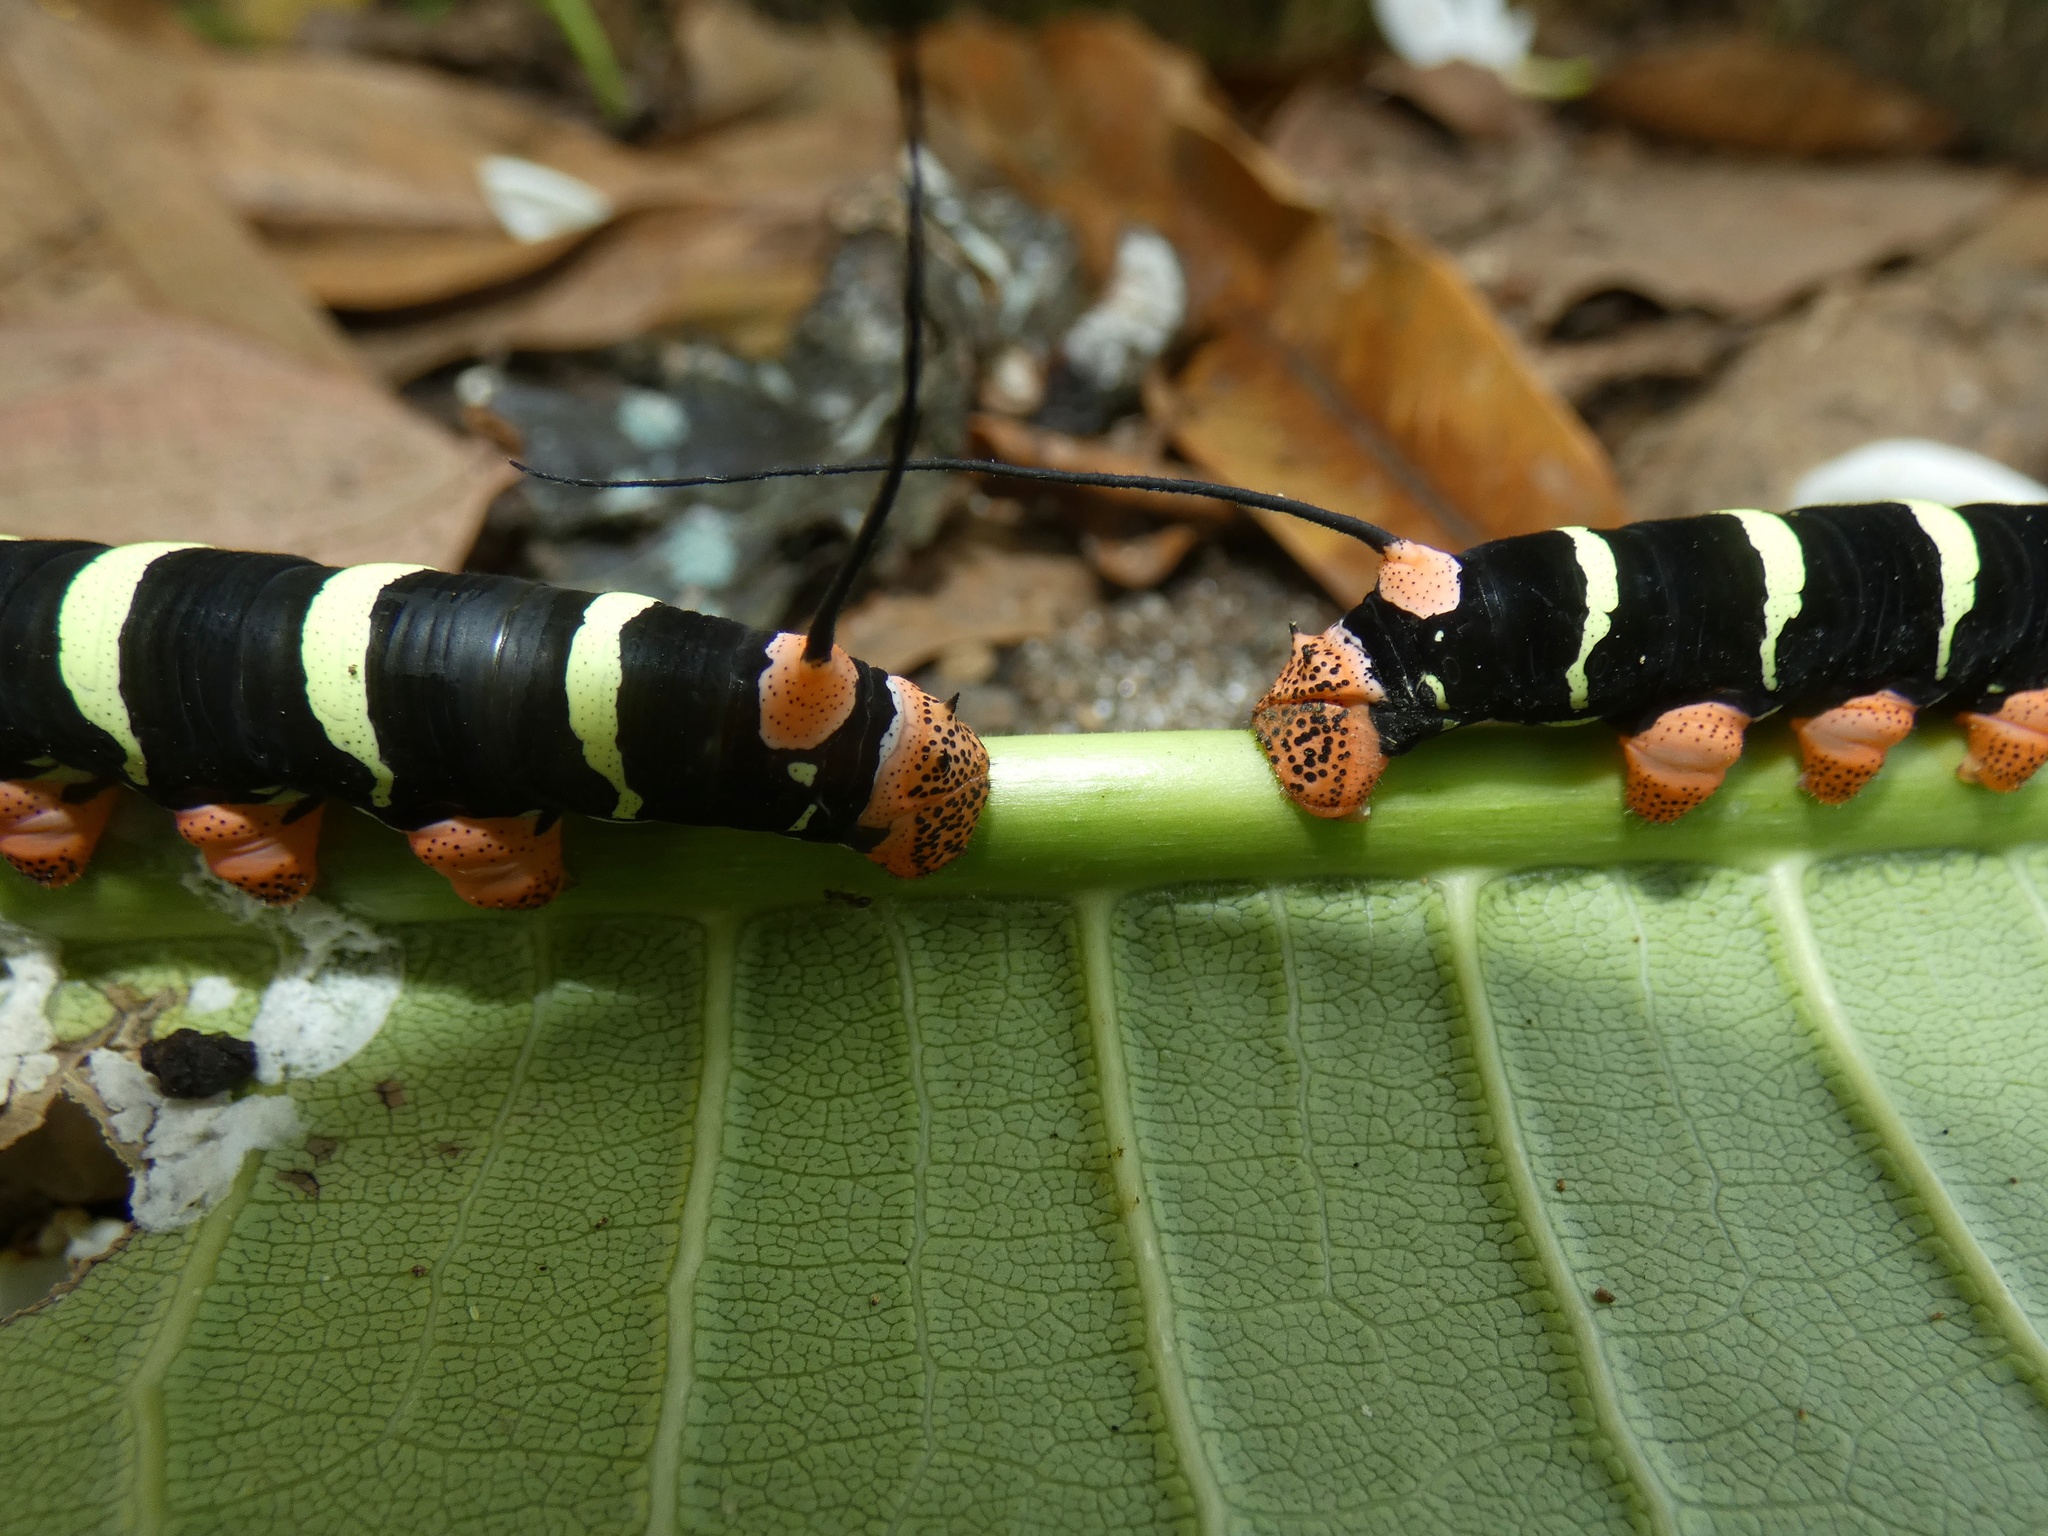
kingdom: Animalia
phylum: Arthropoda
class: Insecta
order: Lepidoptera
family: Sphingidae
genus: Pseudosphinx
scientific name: Pseudosphinx tetrio
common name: Tetrio sphinx
